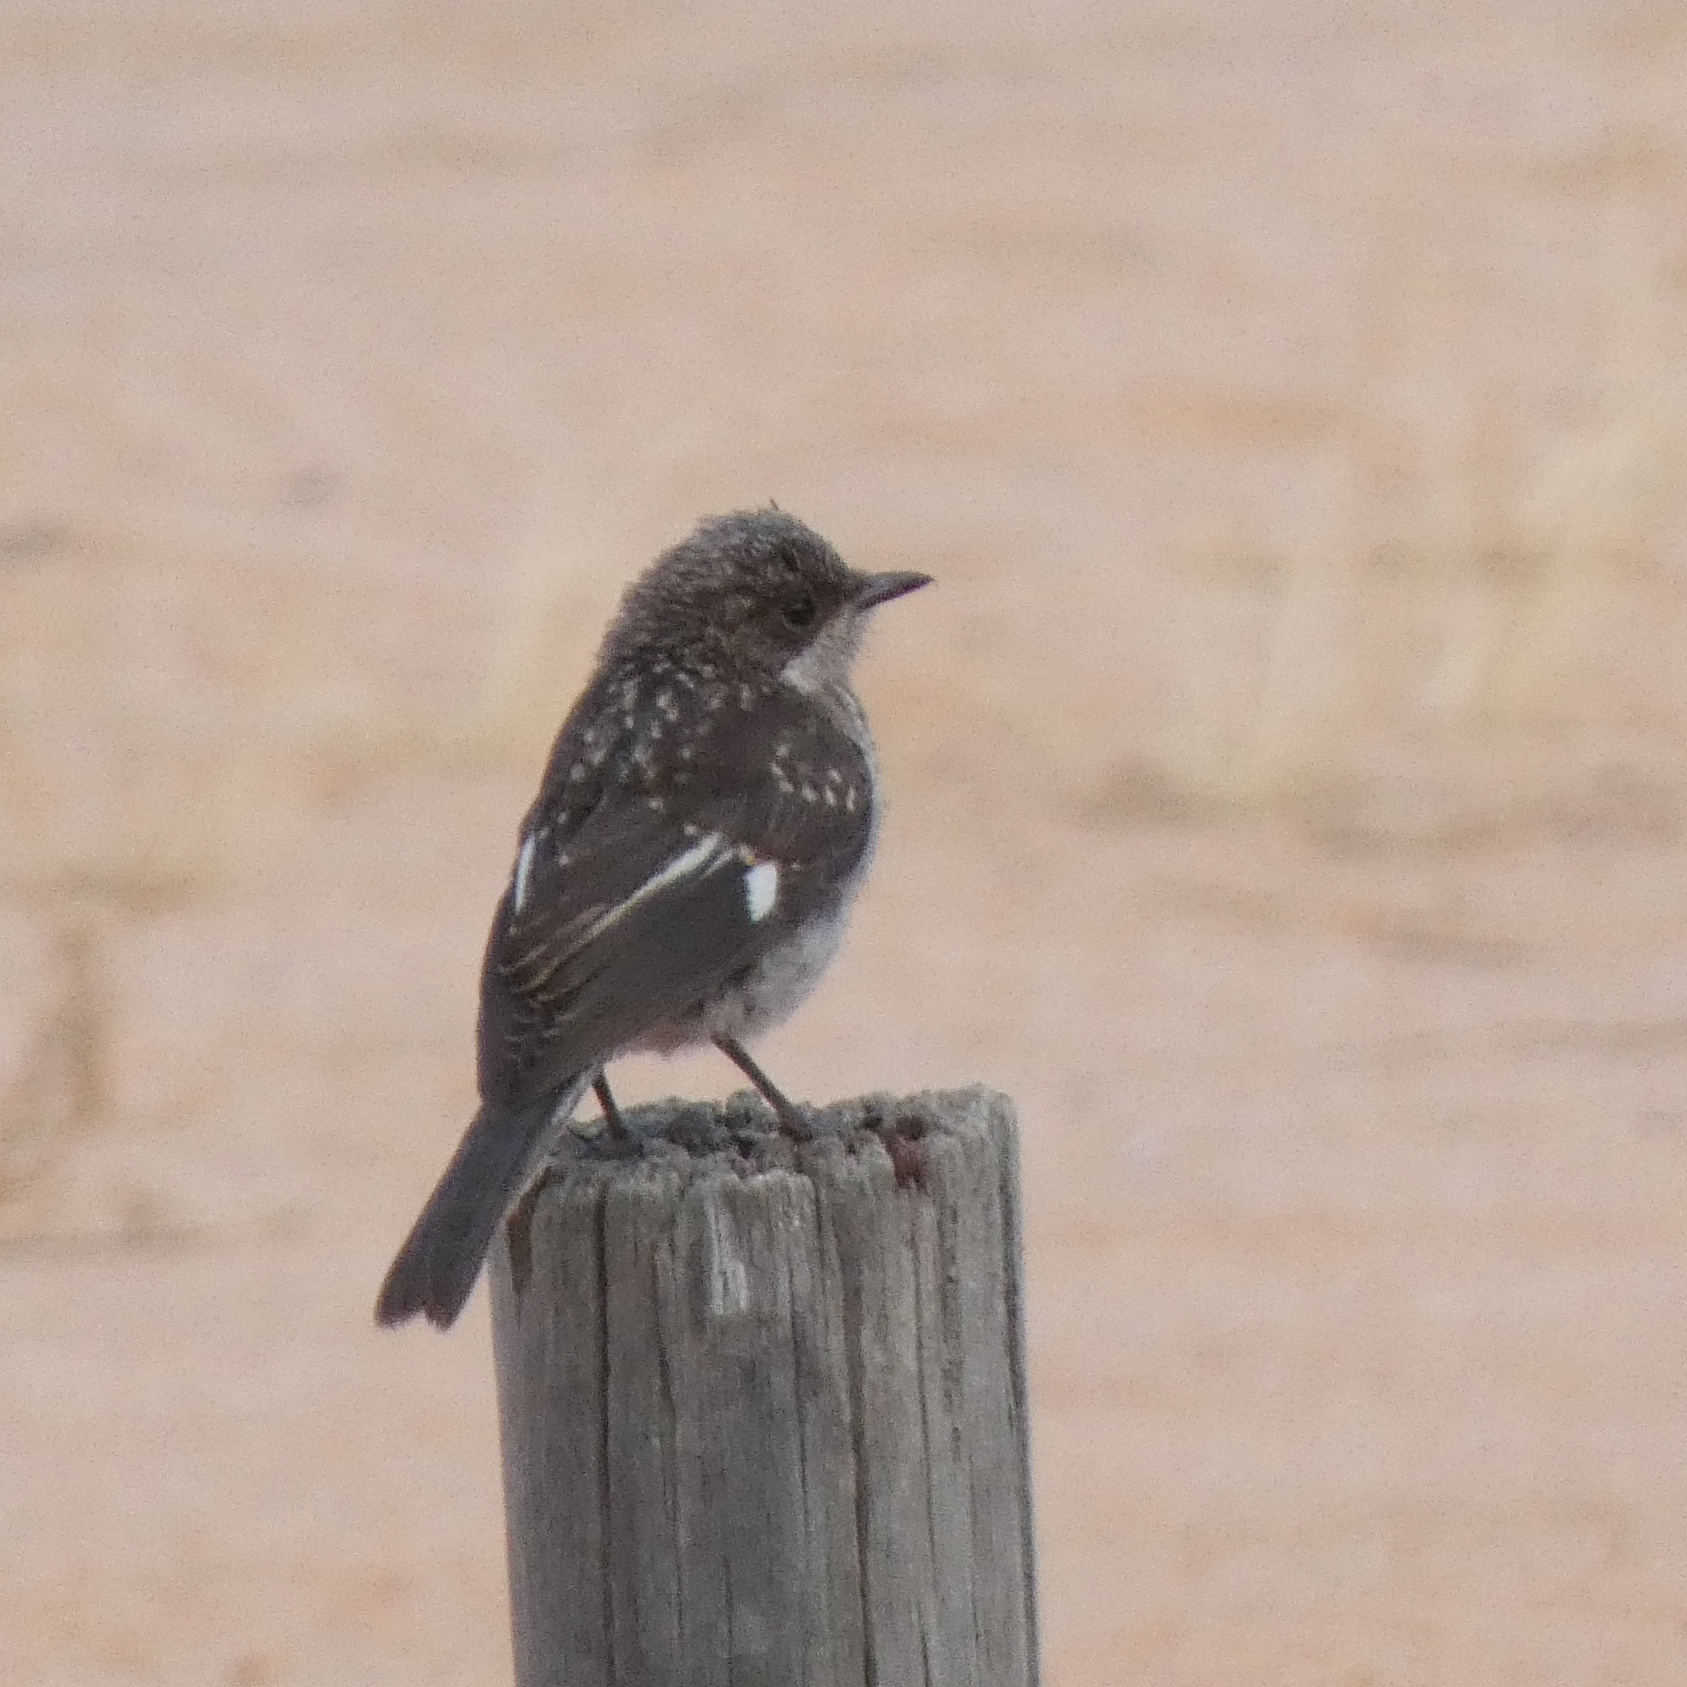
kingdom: Animalia
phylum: Chordata
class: Aves
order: Passeriformes
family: Muscicapidae
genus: Sigelus
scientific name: Sigelus silens
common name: Fiscal flycatcher
